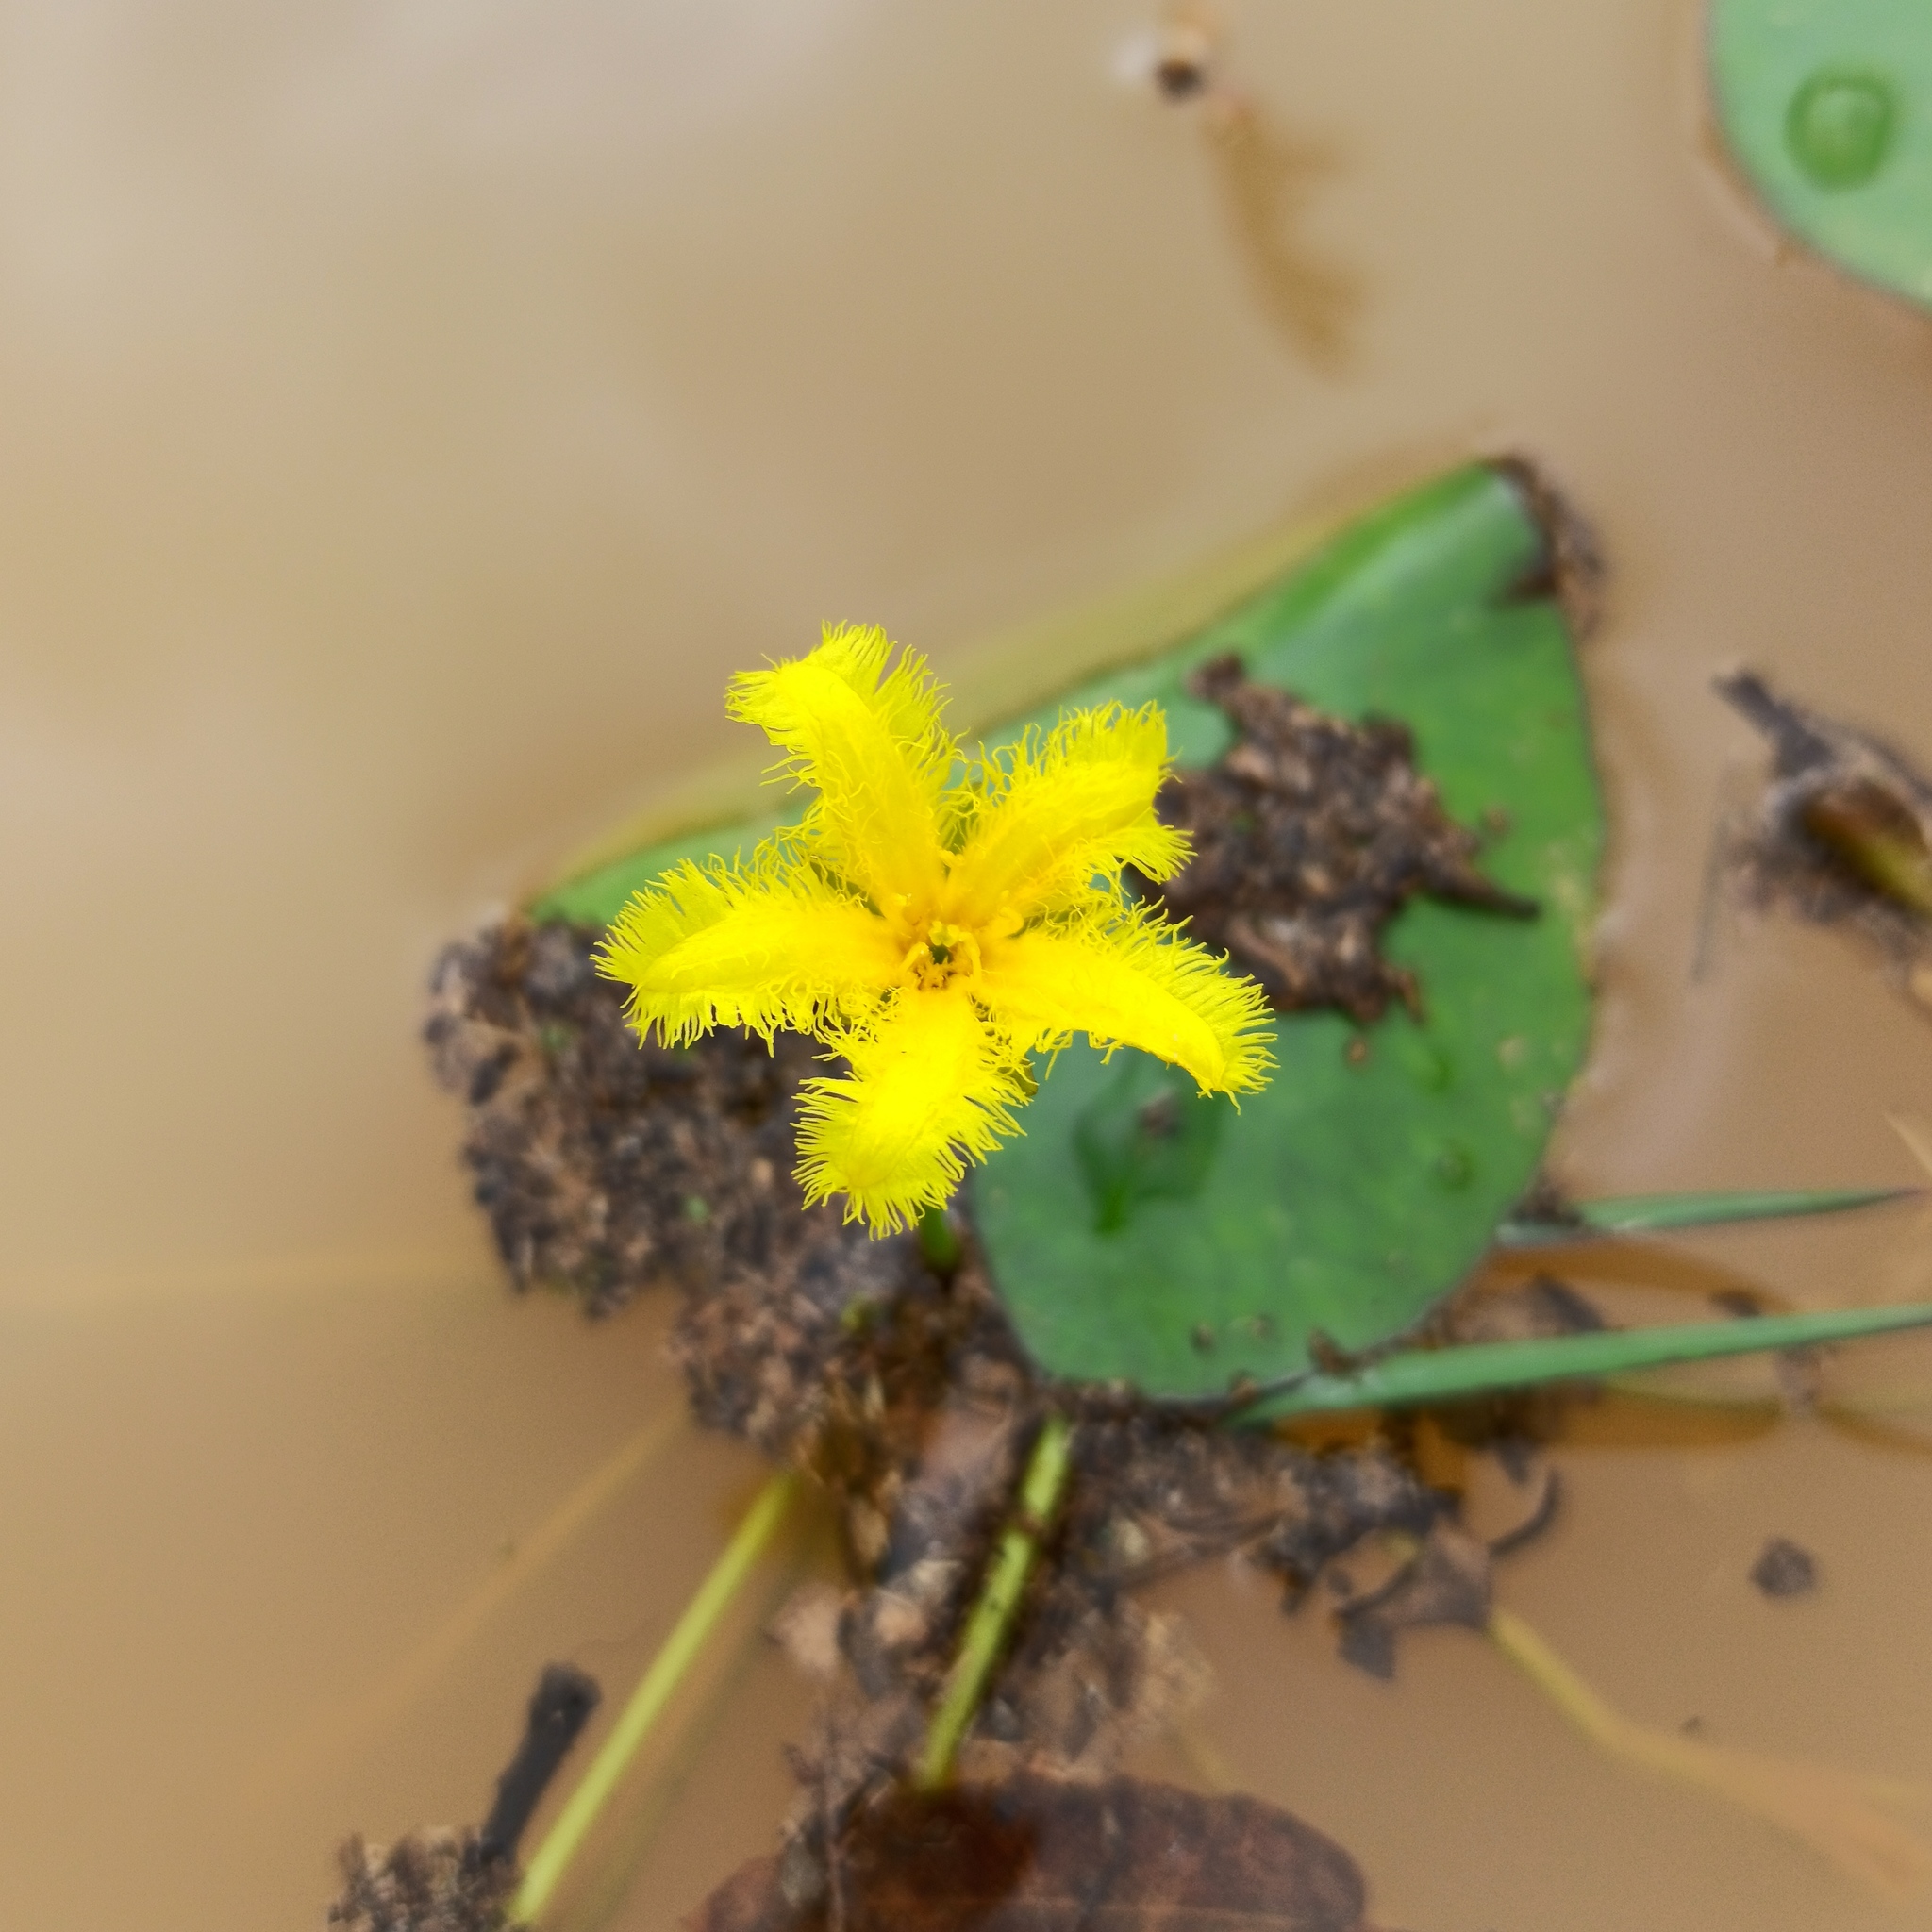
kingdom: Plantae
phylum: Tracheophyta
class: Magnoliopsida
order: Asterales
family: Menyanthaceae
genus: Nymphoides
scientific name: Nymphoides fallax
